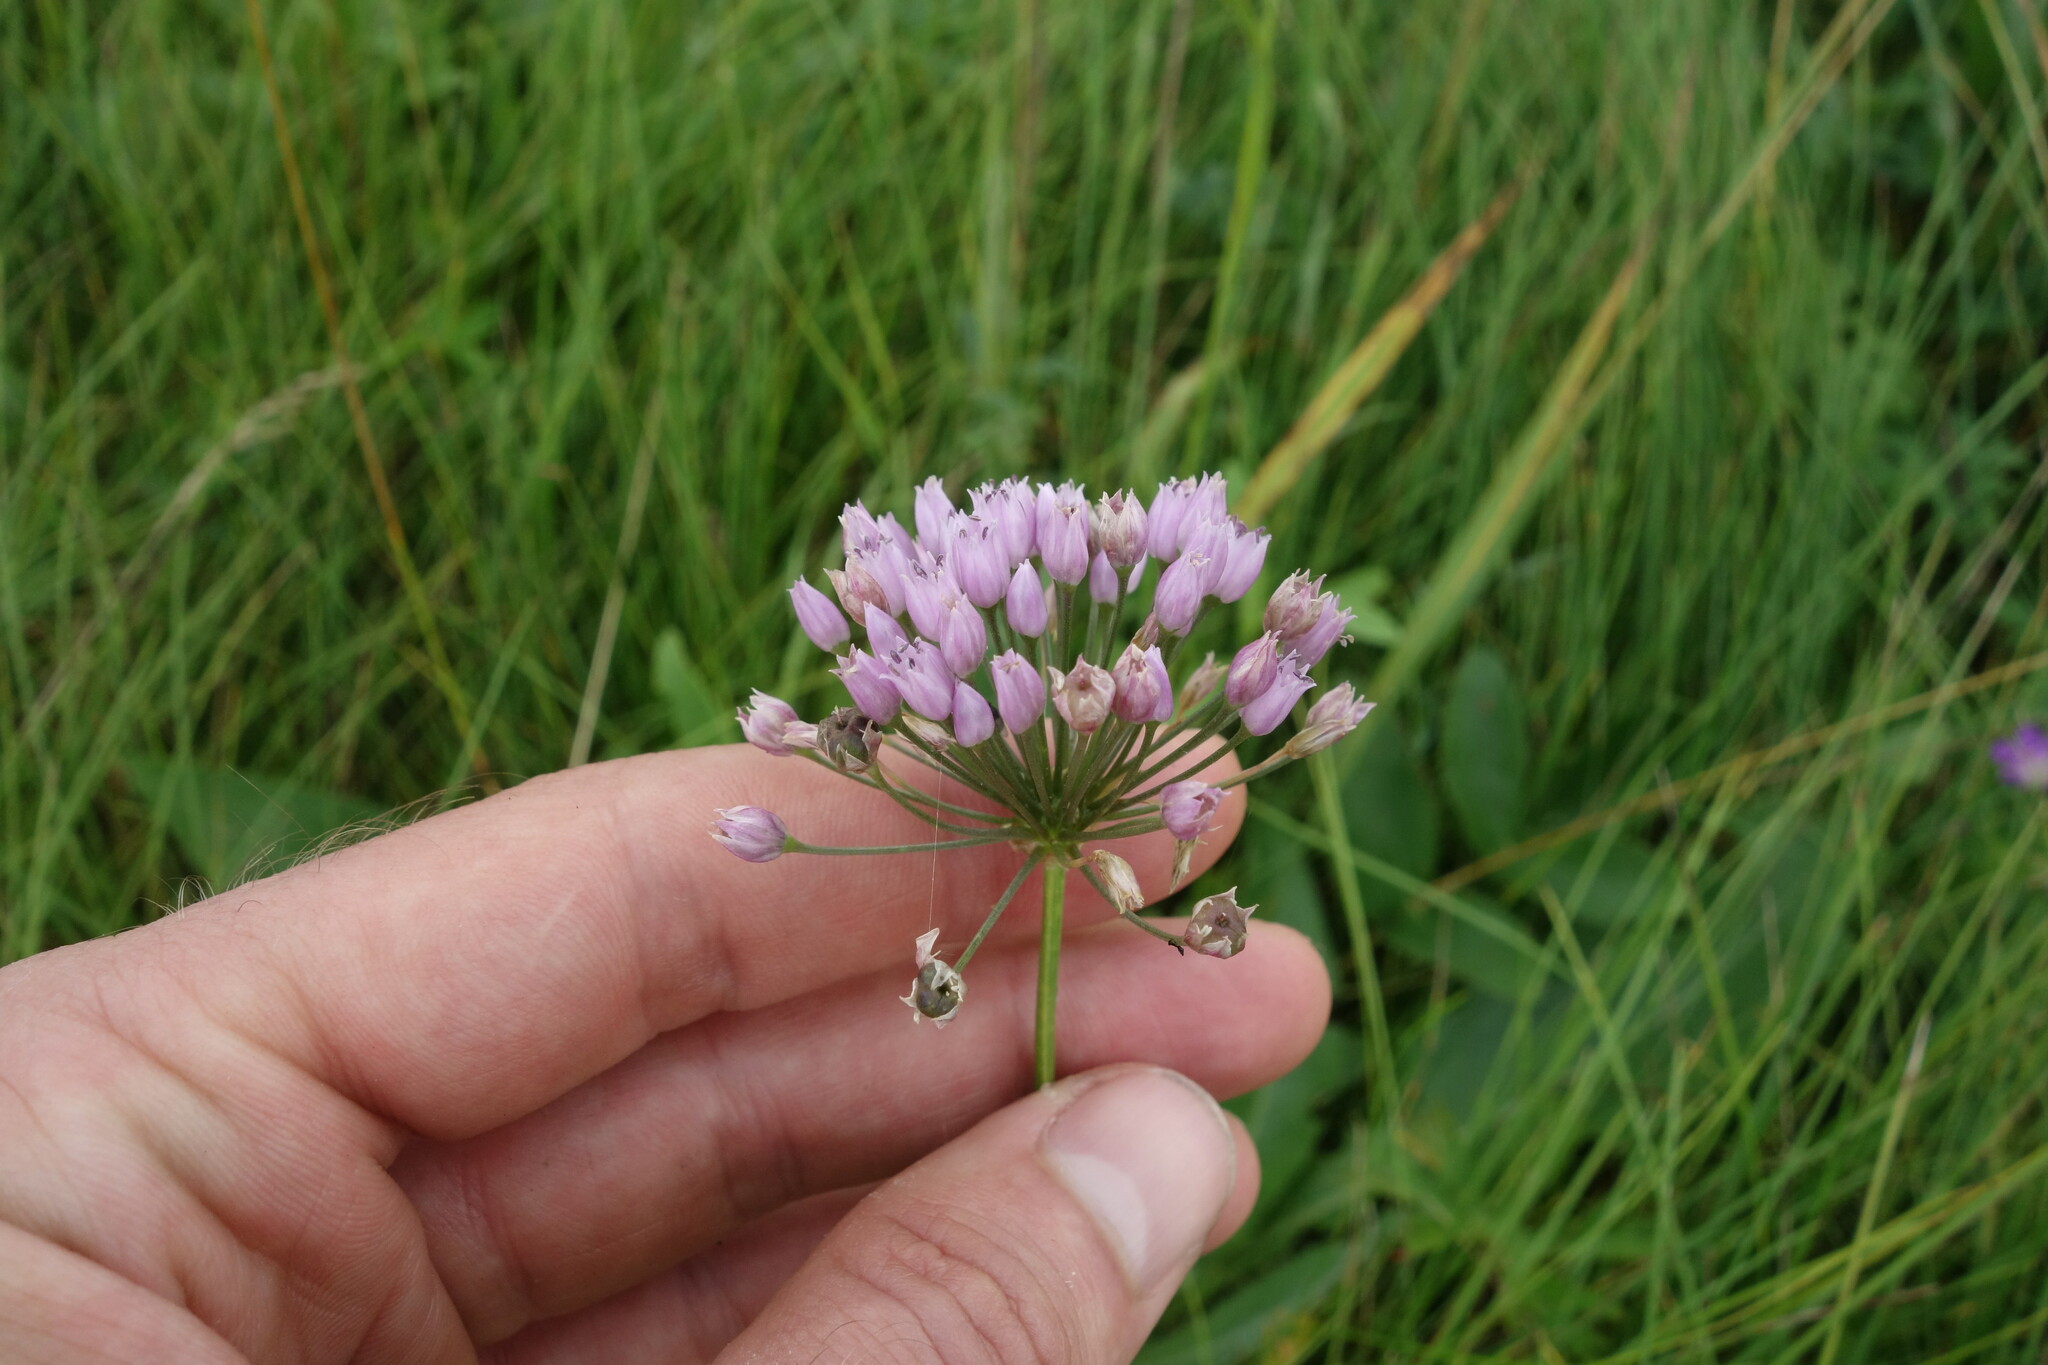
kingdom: Plantae
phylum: Tracheophyta
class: Liliopsida
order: Asparagales
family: Amaryllidaceae
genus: Allium
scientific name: Allium angulosum
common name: Mouse garlic
